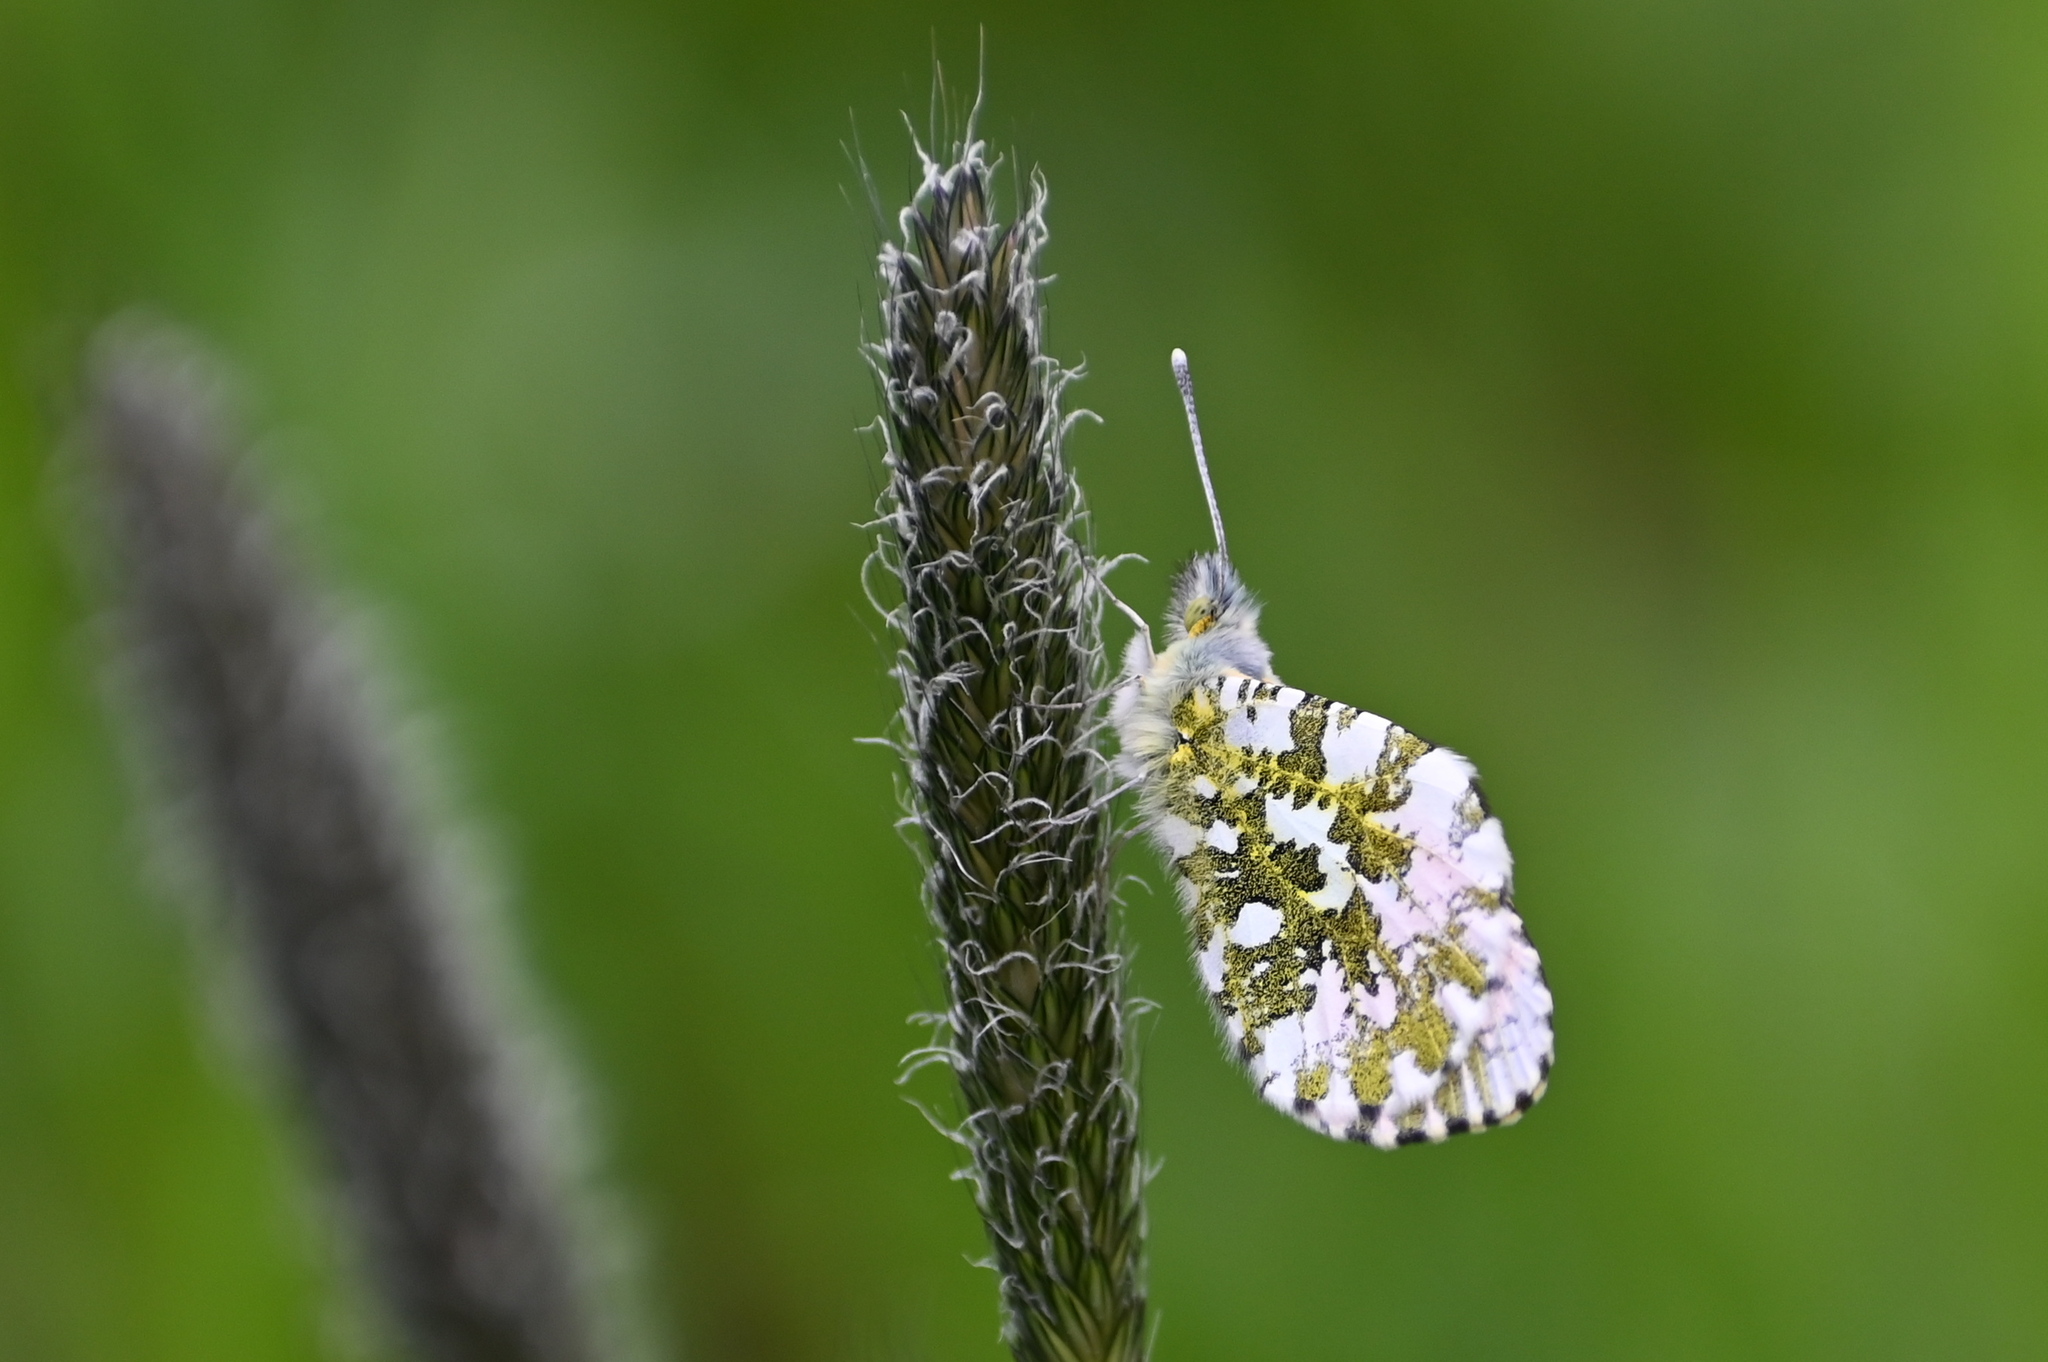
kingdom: Animalia
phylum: Arthropoda
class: Insecta
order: Lepidoptera
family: Pieridae
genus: Anthocharis
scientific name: Anthocharis cardamines
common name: Orange-tip
